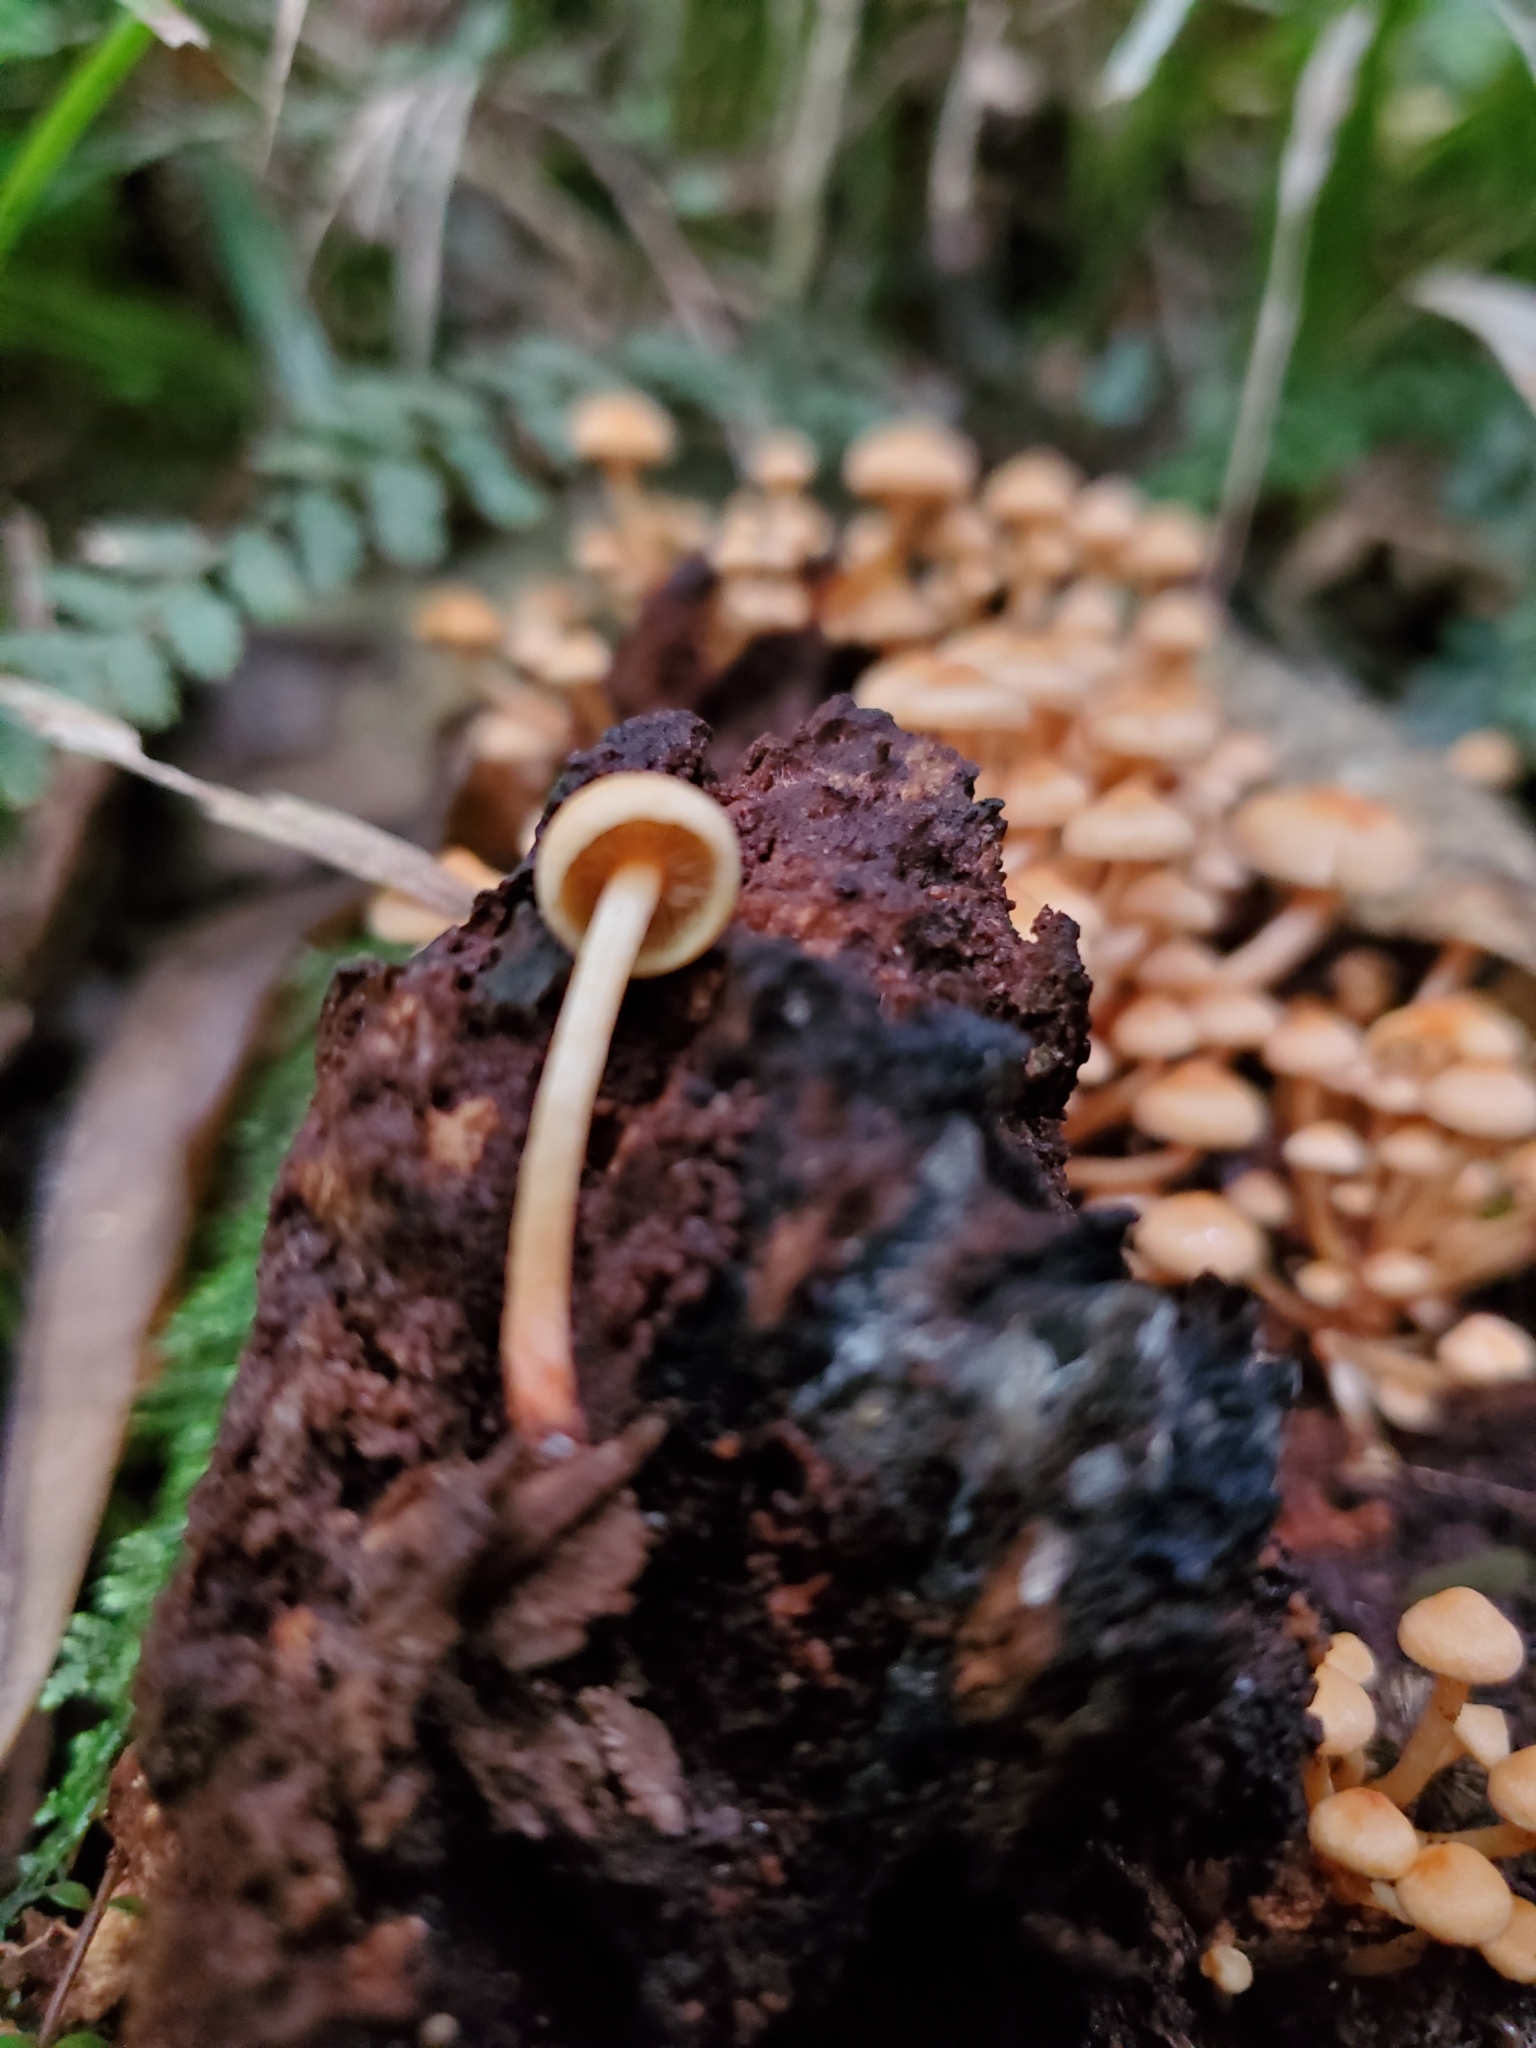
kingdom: Fungi
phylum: Basidiomycota
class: Agaricomycetes
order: Agaricales
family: Strophariaceae
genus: Hypholoma
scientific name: Hypholoma acutum
